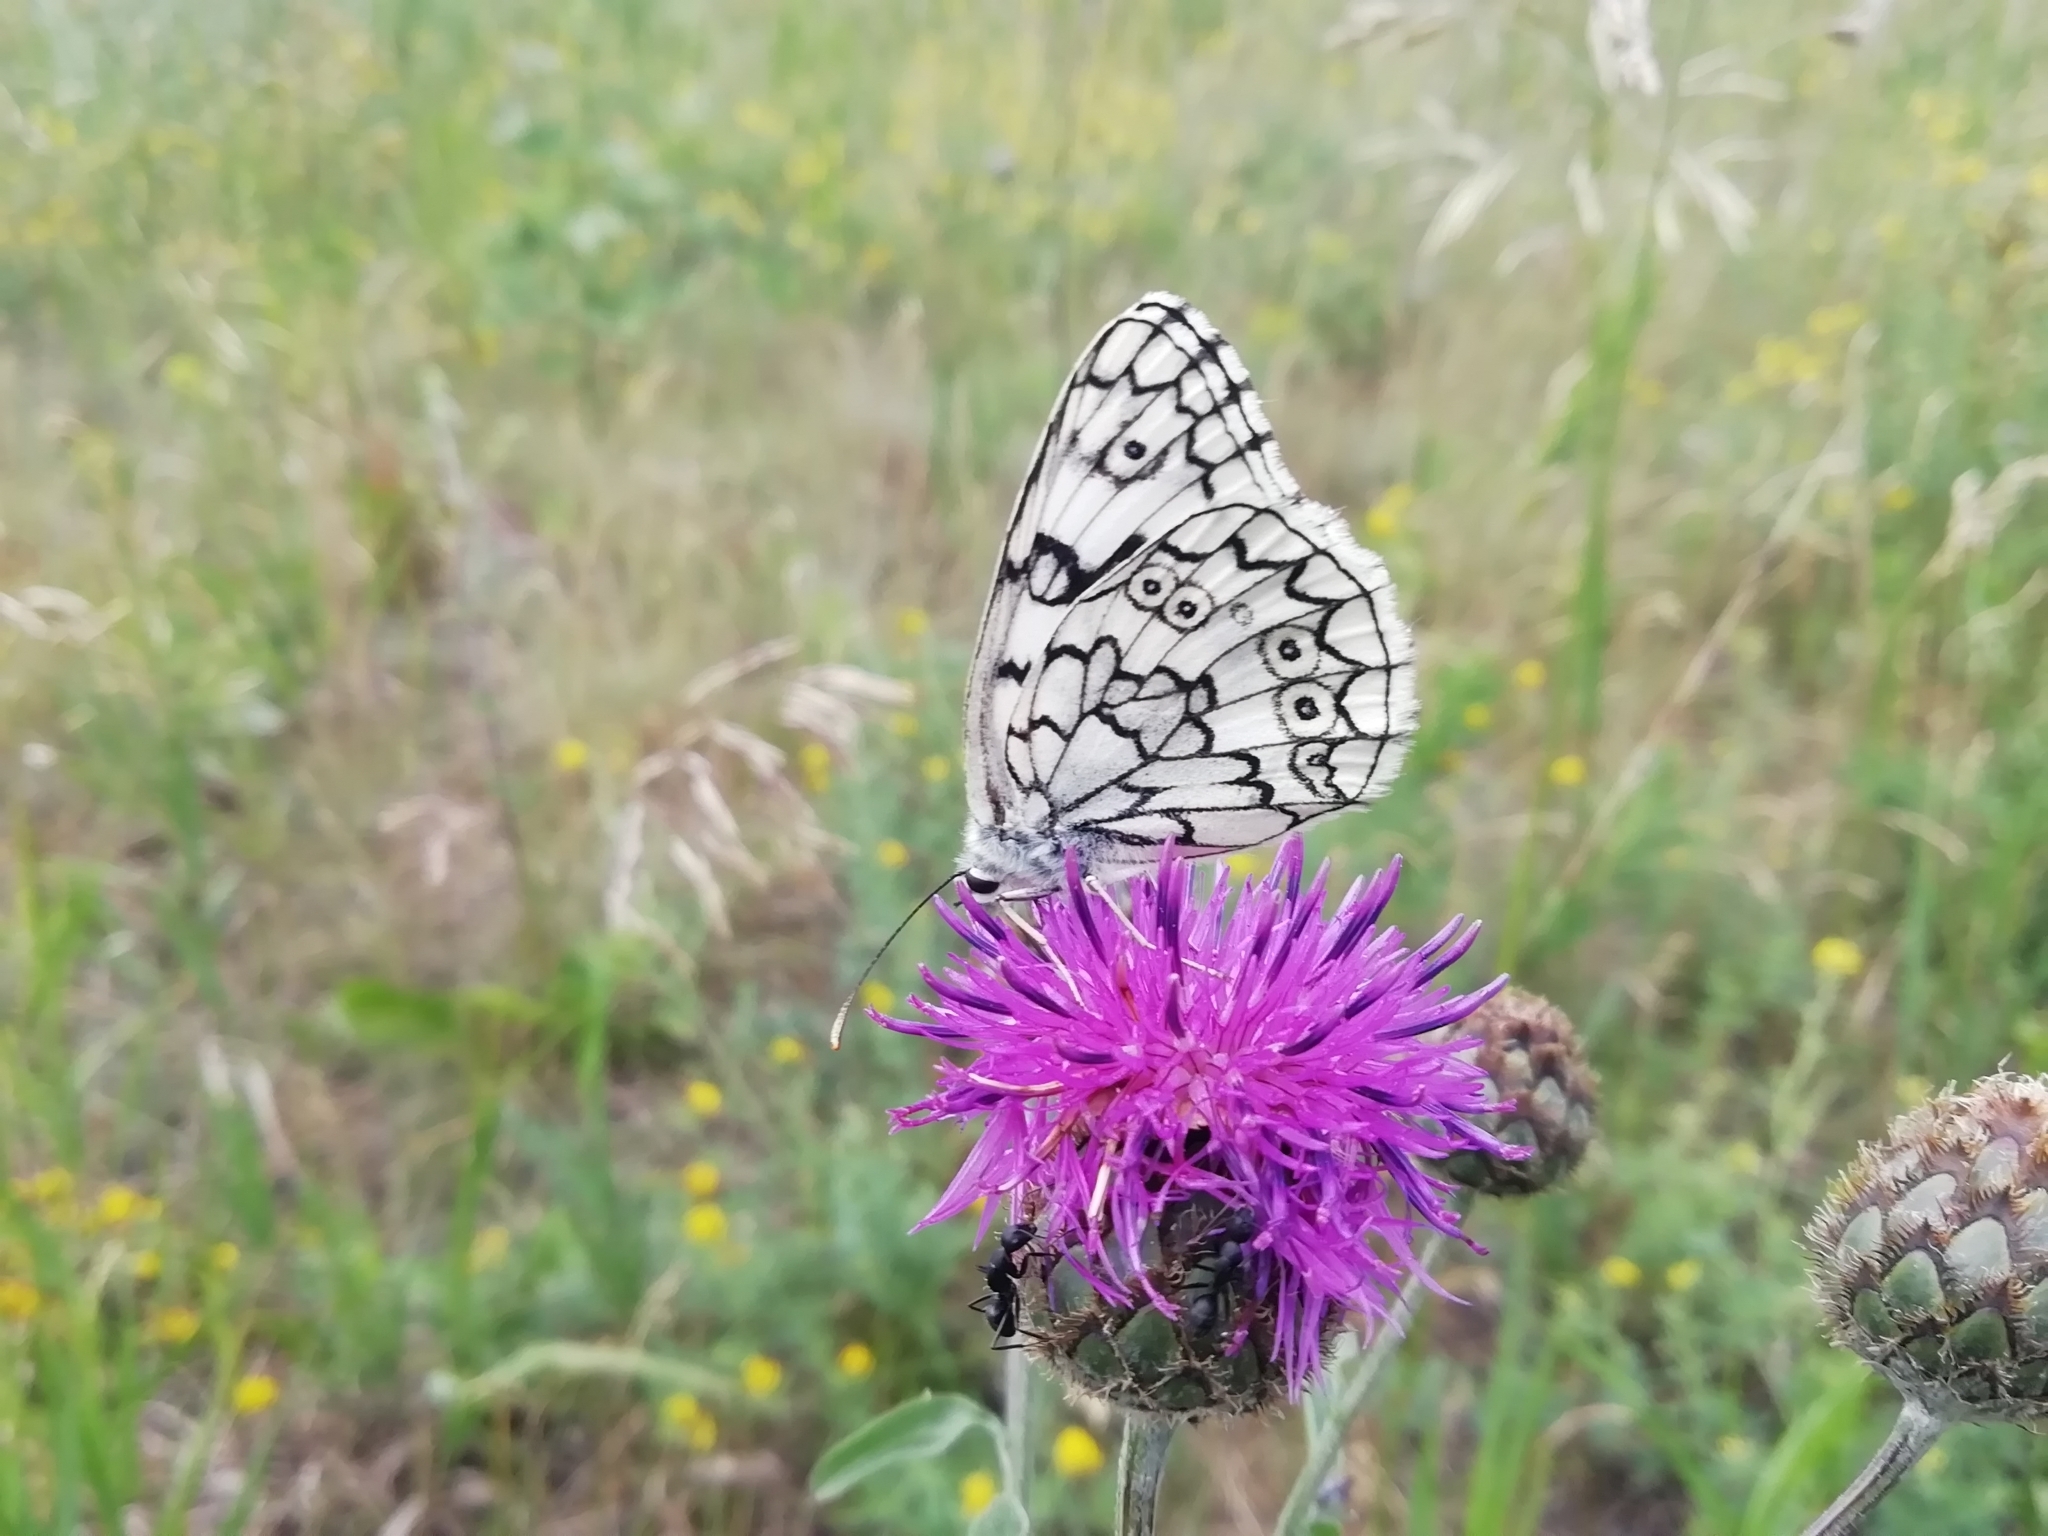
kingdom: Animalia
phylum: Arthropoda
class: Insecta
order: Lepidoptera
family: Nymphalidae
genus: Melanargia
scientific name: Melanargia japygia
